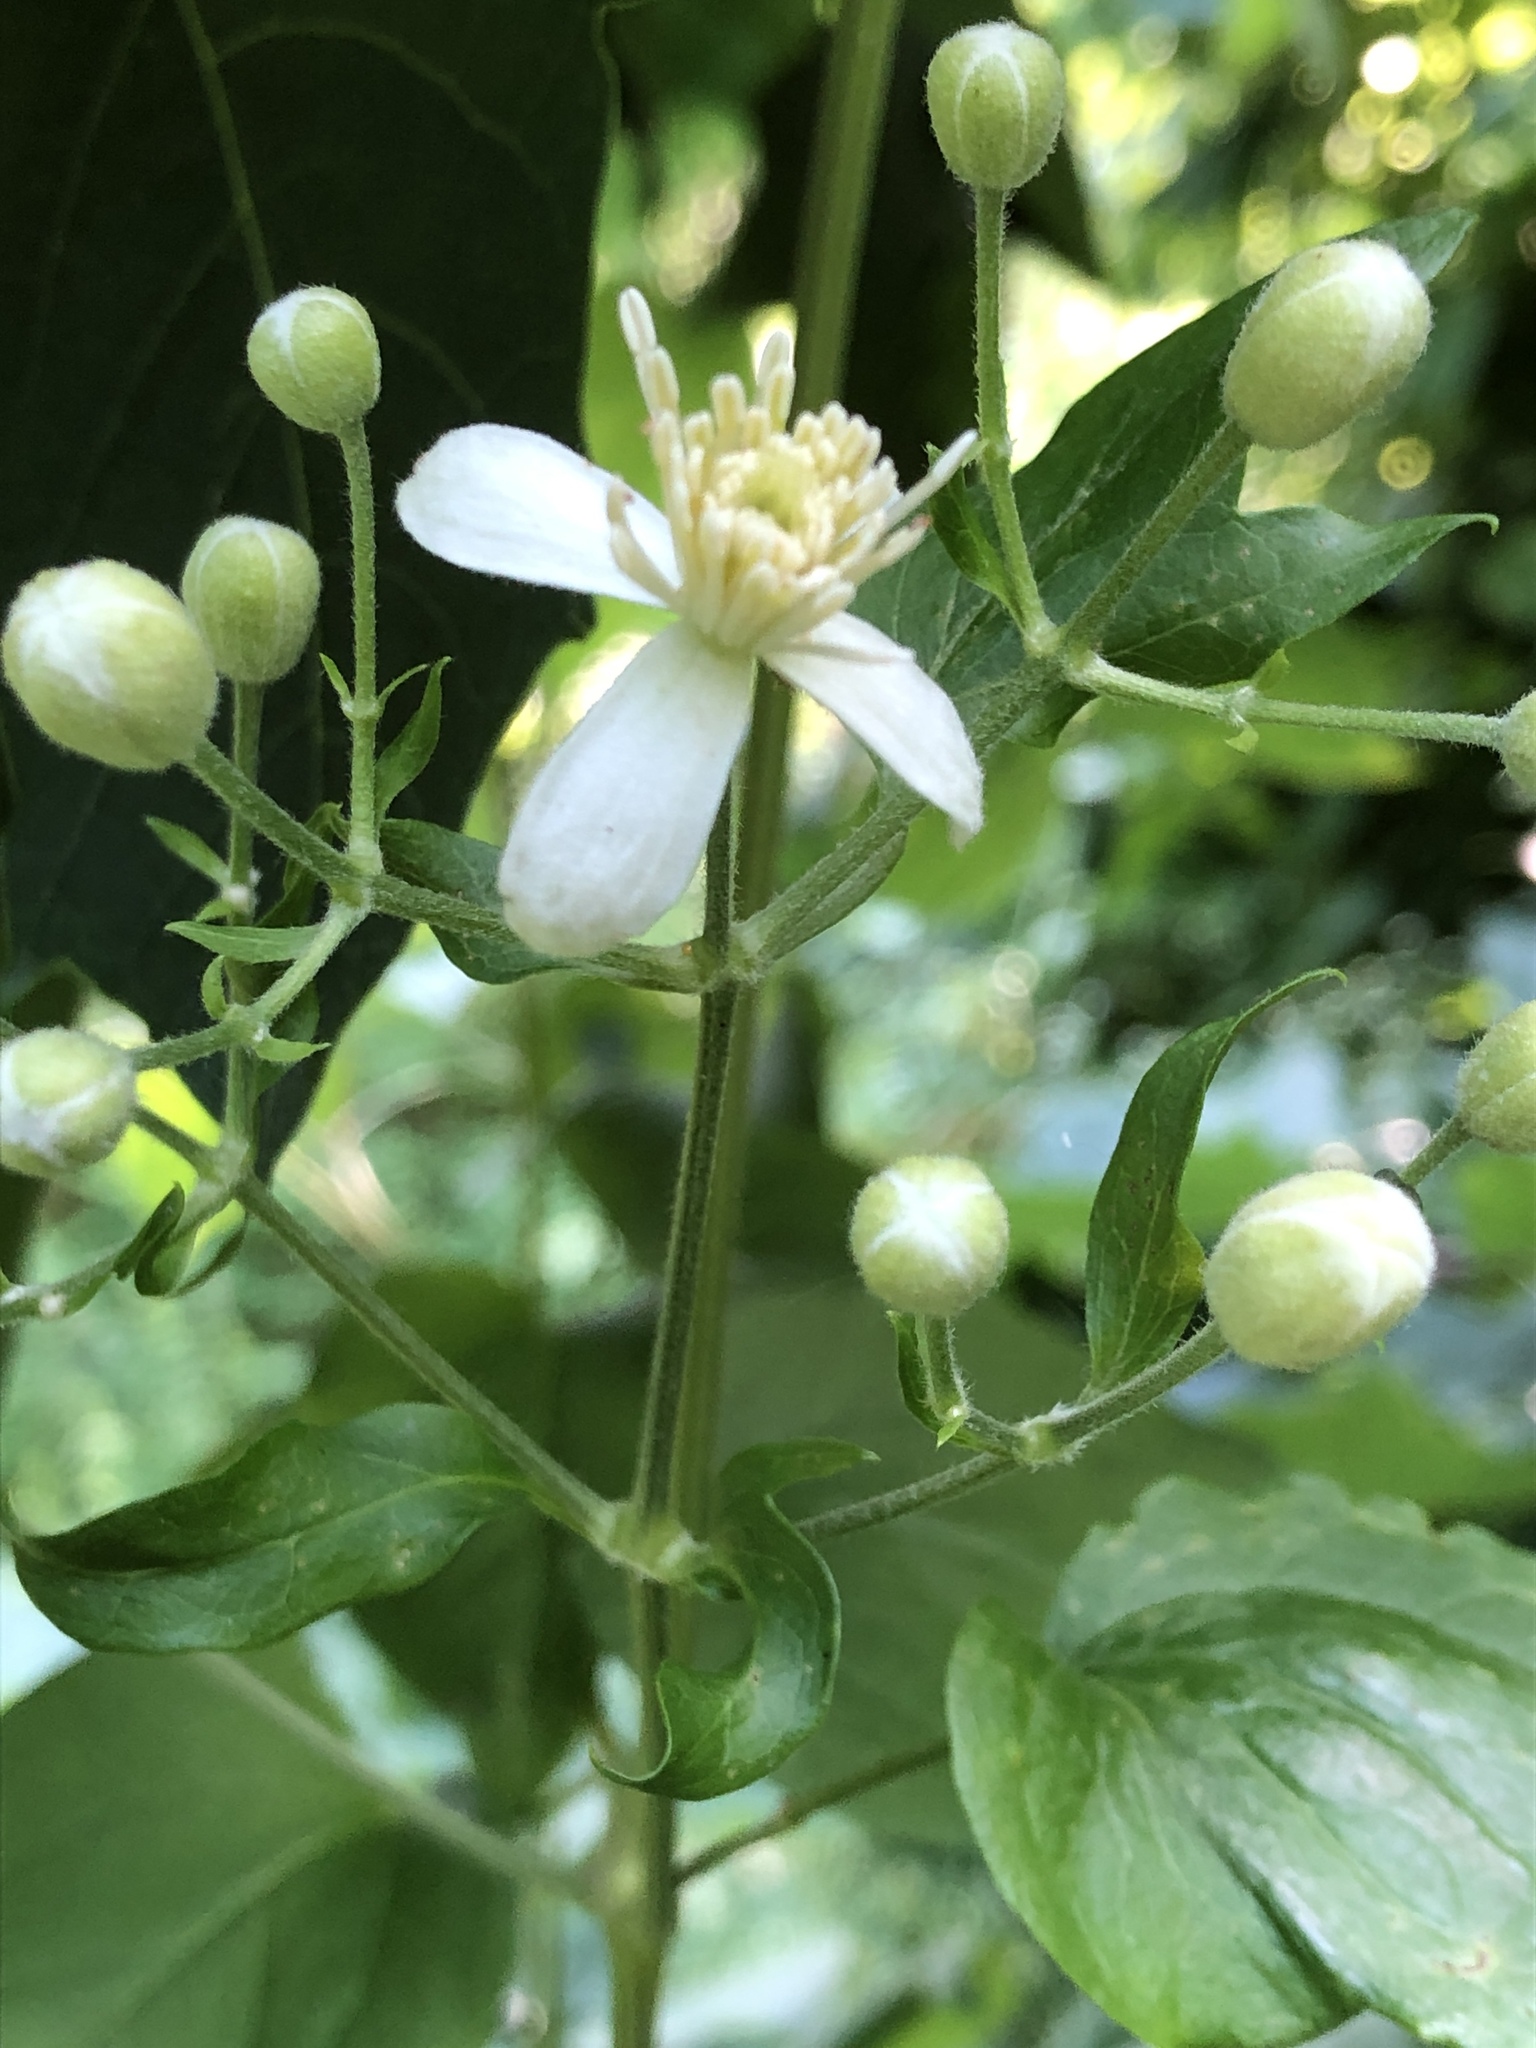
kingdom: Plantae
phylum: Tracheophyta
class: Magnoliopsida
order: Ranunculales
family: Ranunculaceae
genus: Clematis
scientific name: Clematis vitalba
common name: Evergreen clematis
